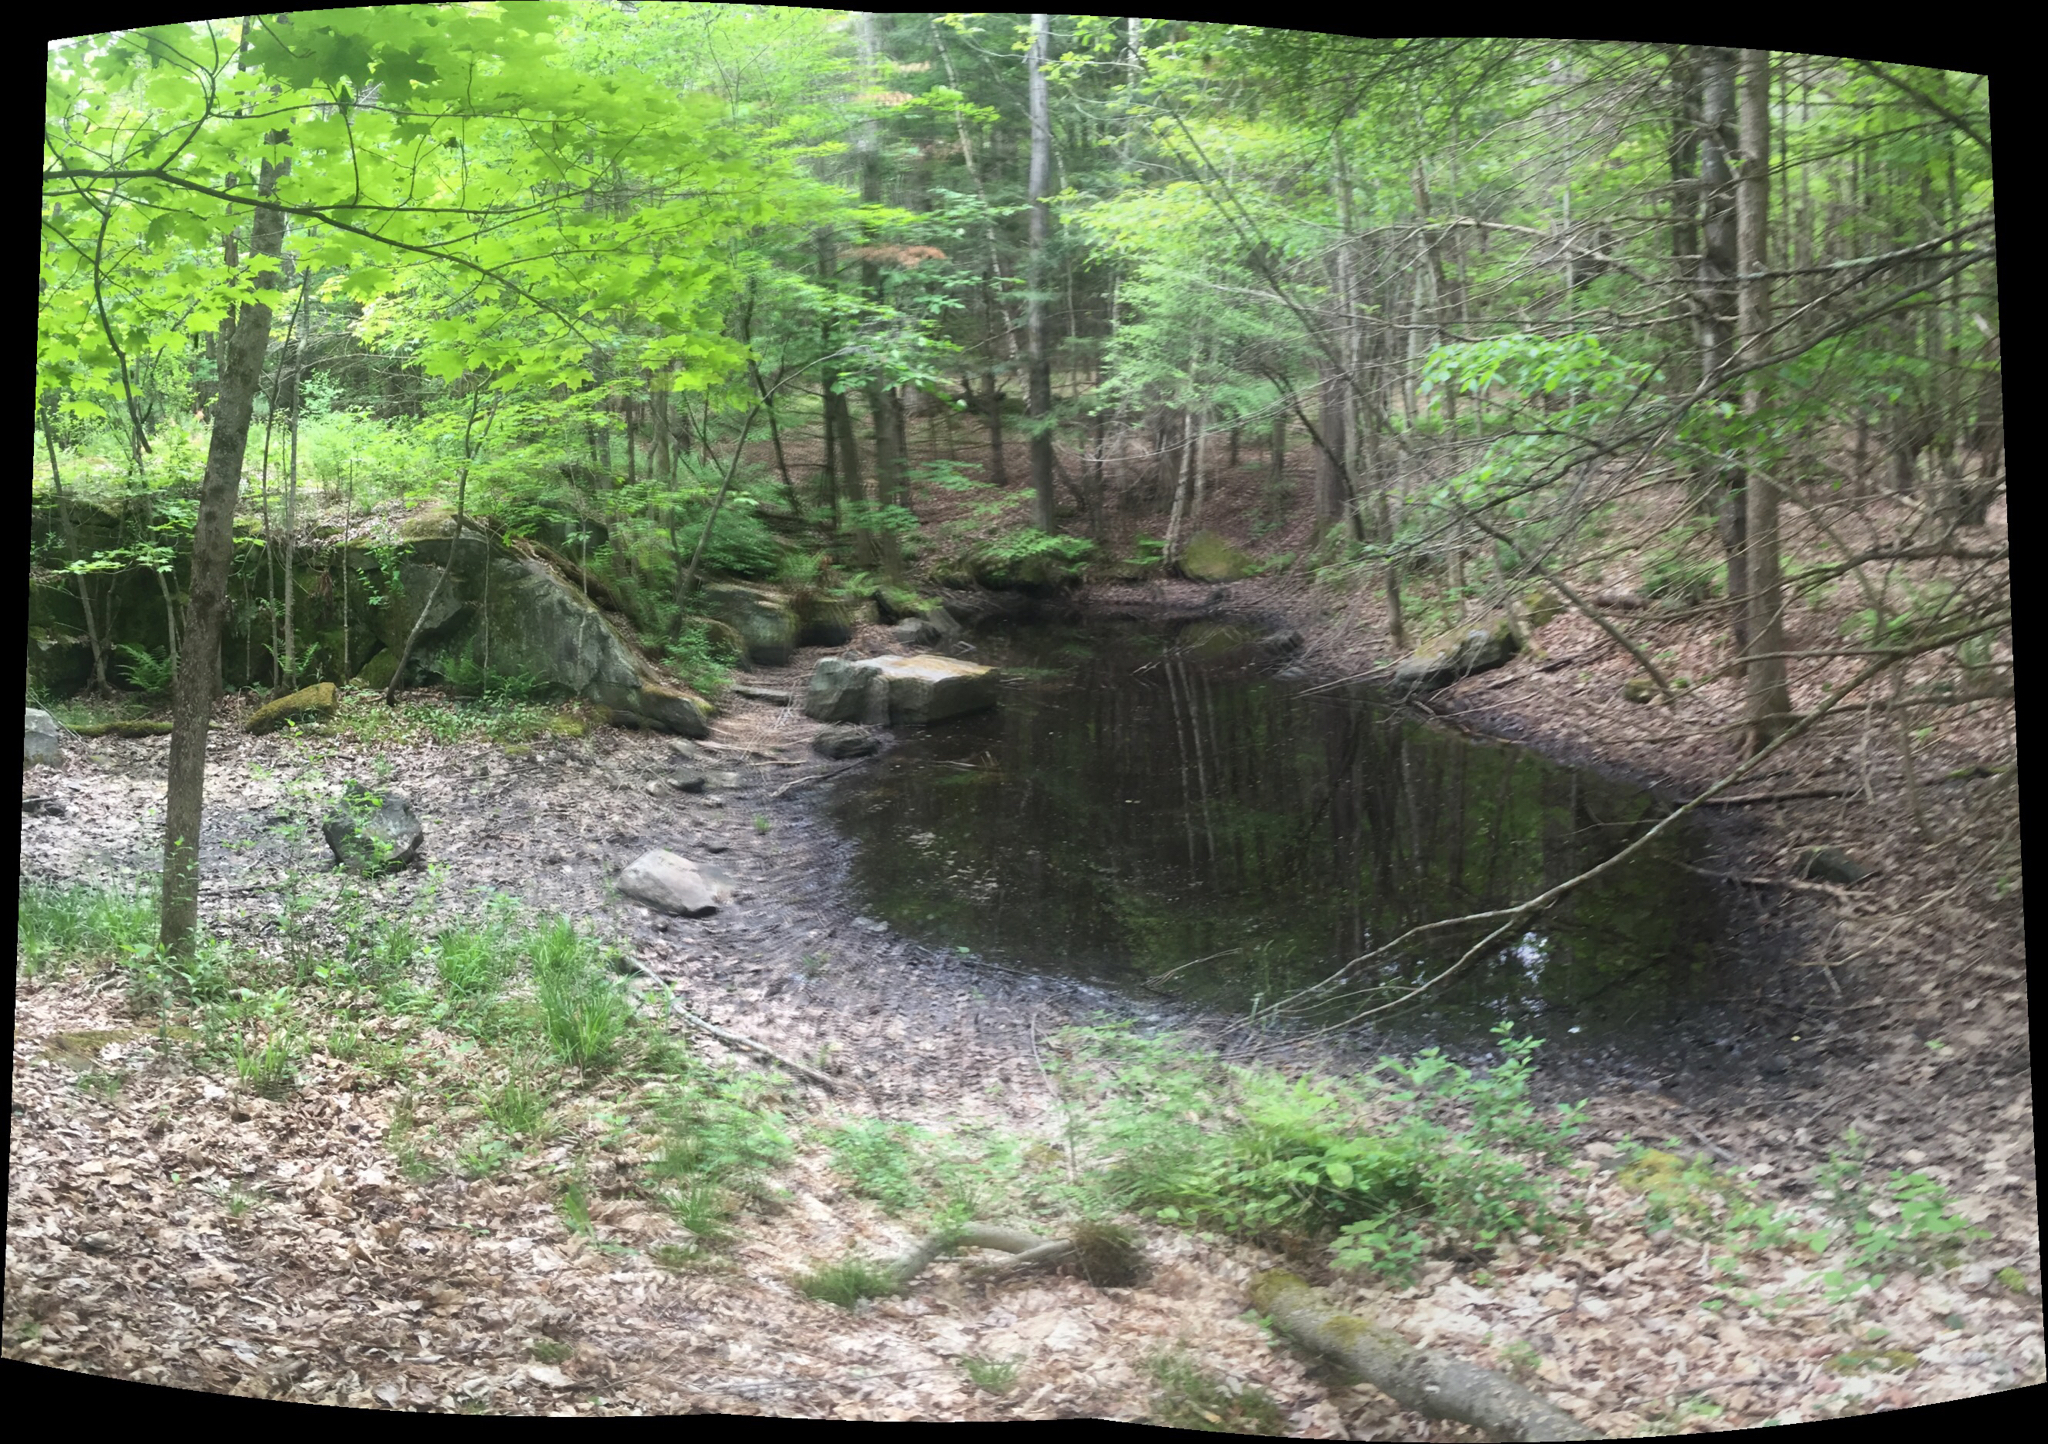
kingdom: Animalia
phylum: Chordata
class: Amphibia
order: Caudata
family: Ambystomatidae
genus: Ambystoma
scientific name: Ambystoma maculatum
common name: Spotted salamander
